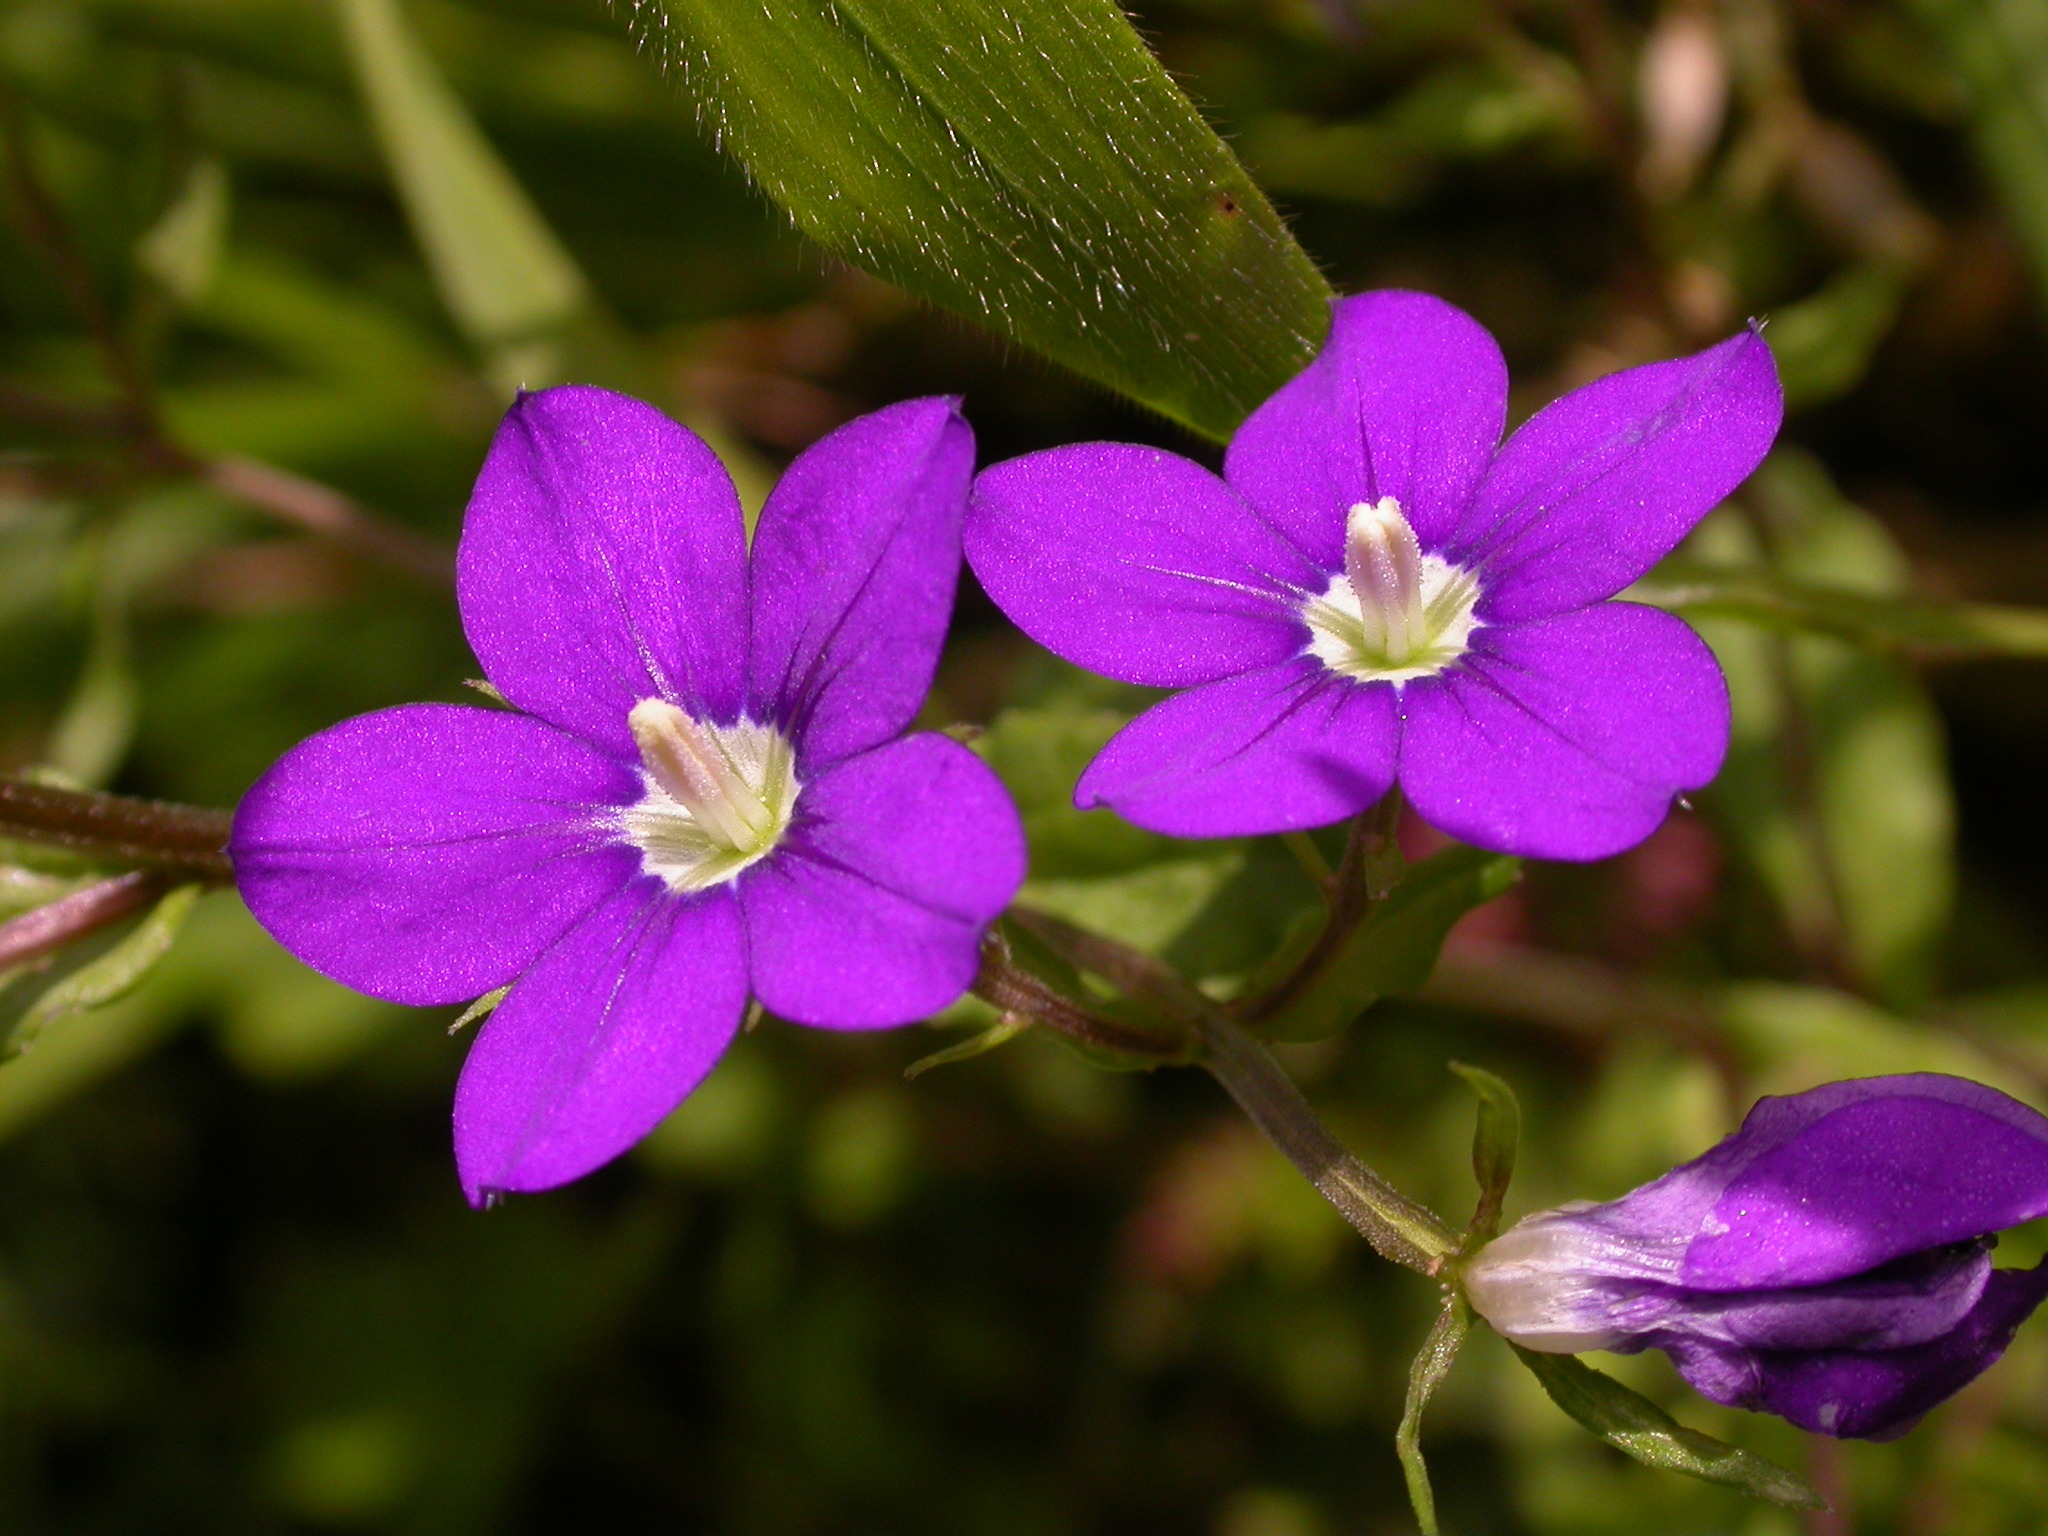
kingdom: Plantae
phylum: Tracheophyta
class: Magnoliopsida
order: Asterales
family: Campanulaceae
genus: Legousia
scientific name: Legousia speculum-veneris
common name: Large venus's-looking-glass
